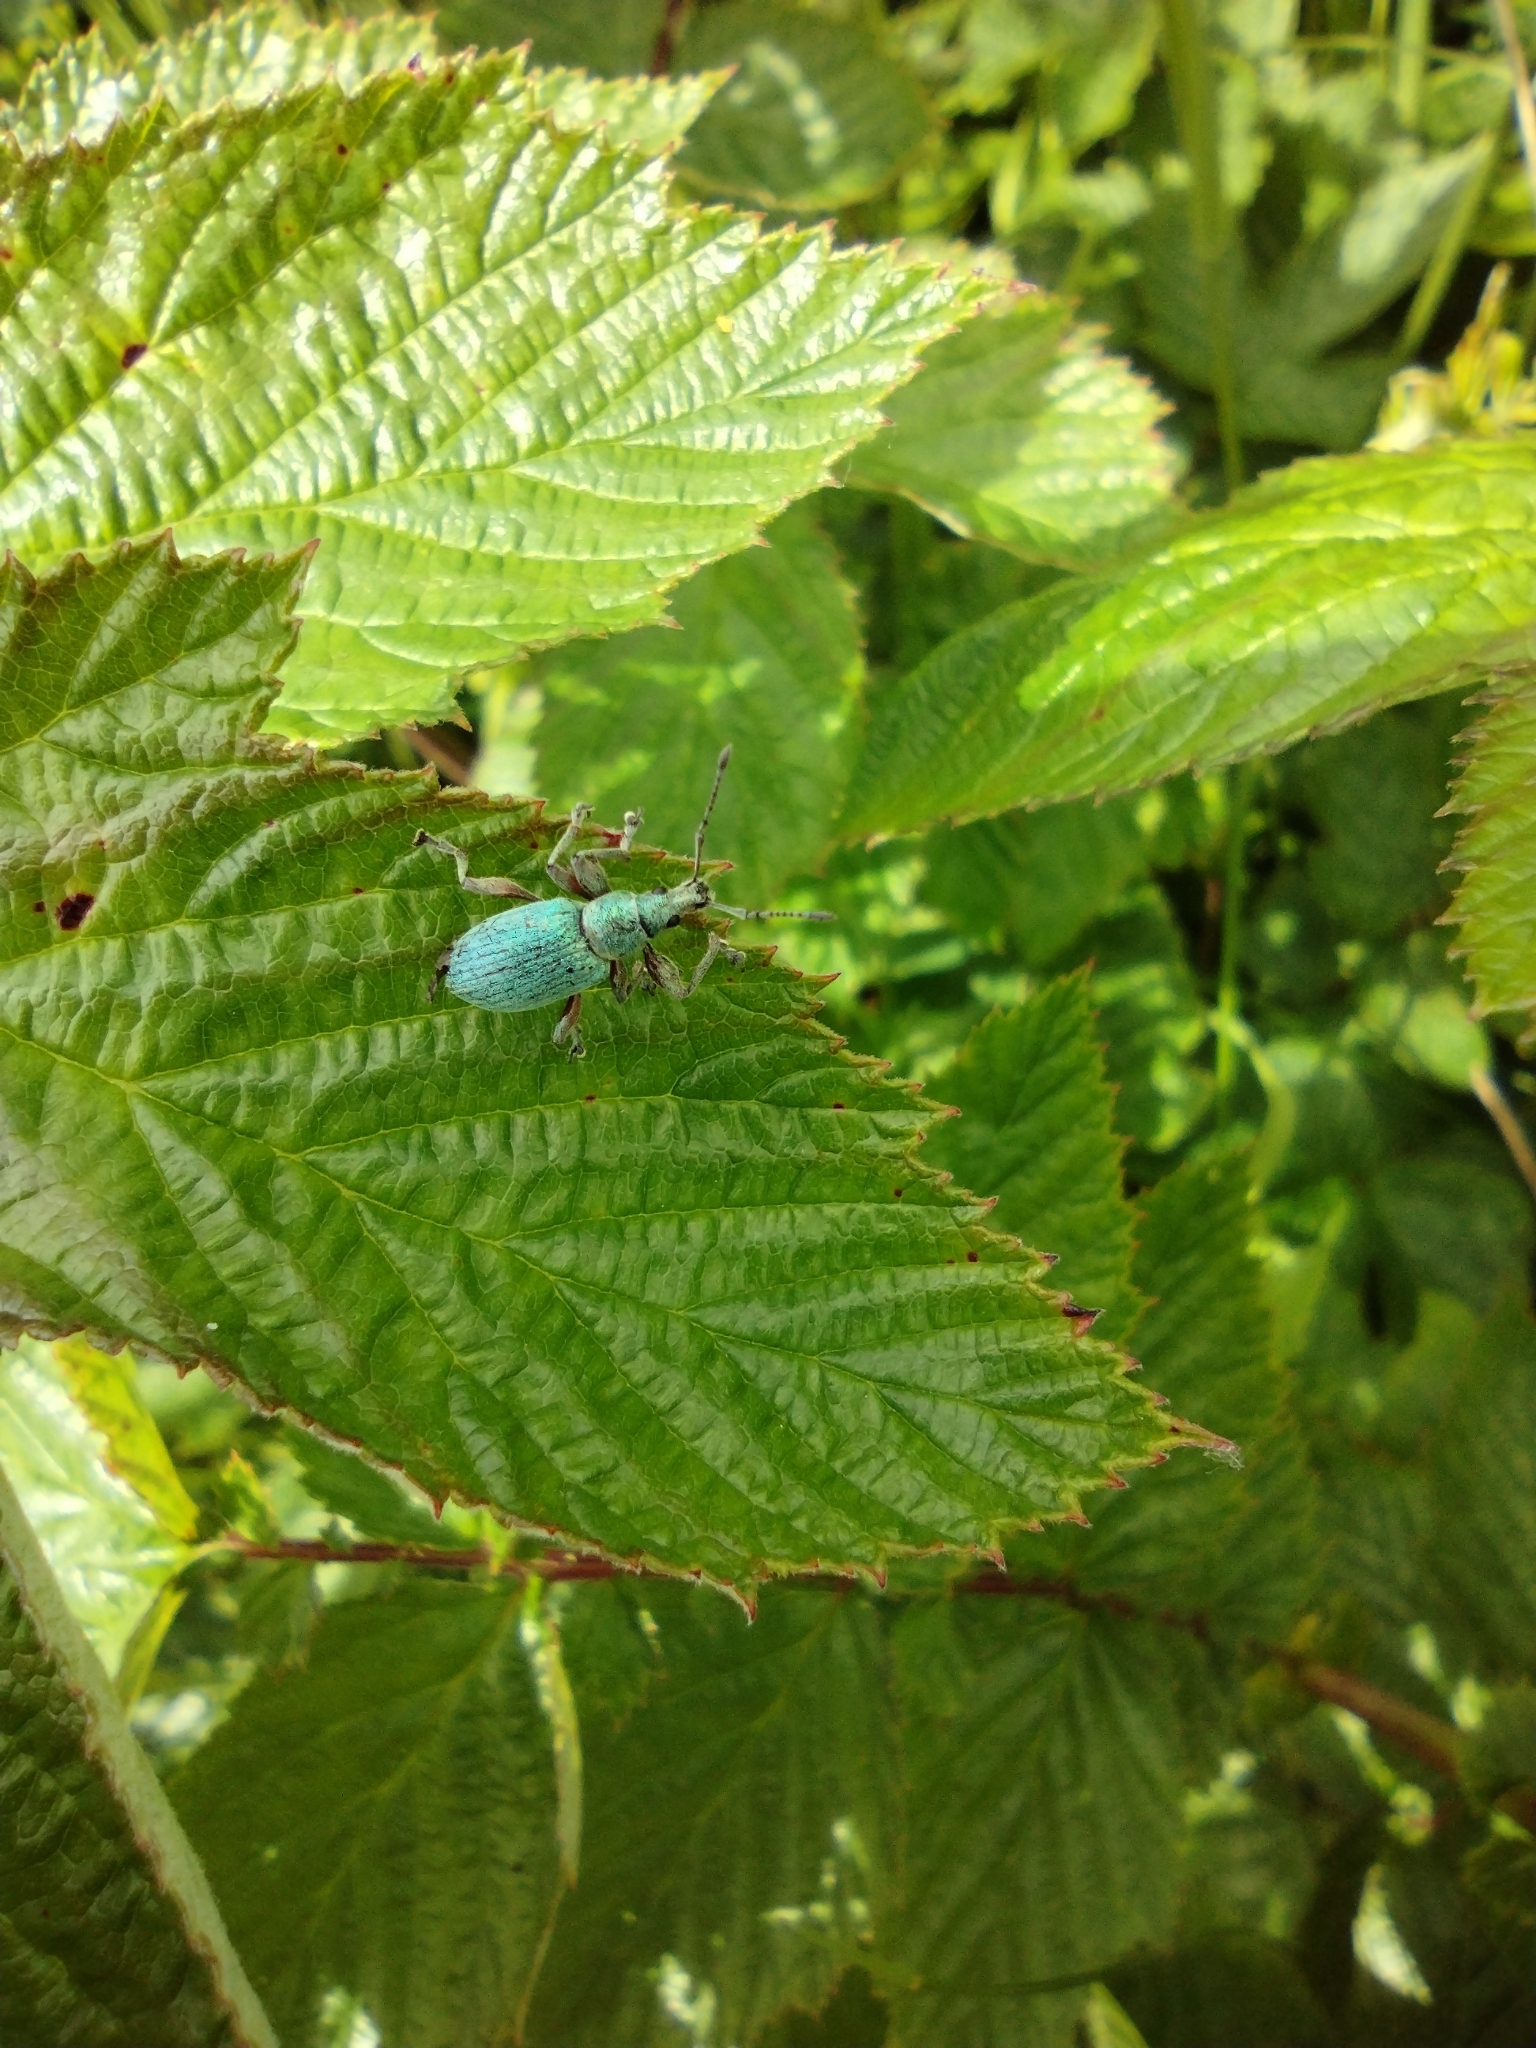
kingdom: Animalia
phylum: Arthropoda
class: Insecta
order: Coleoptera
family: Curculionidae
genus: Phyllobius
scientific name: Phyllobius pomaceus
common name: Green nettle weevil
